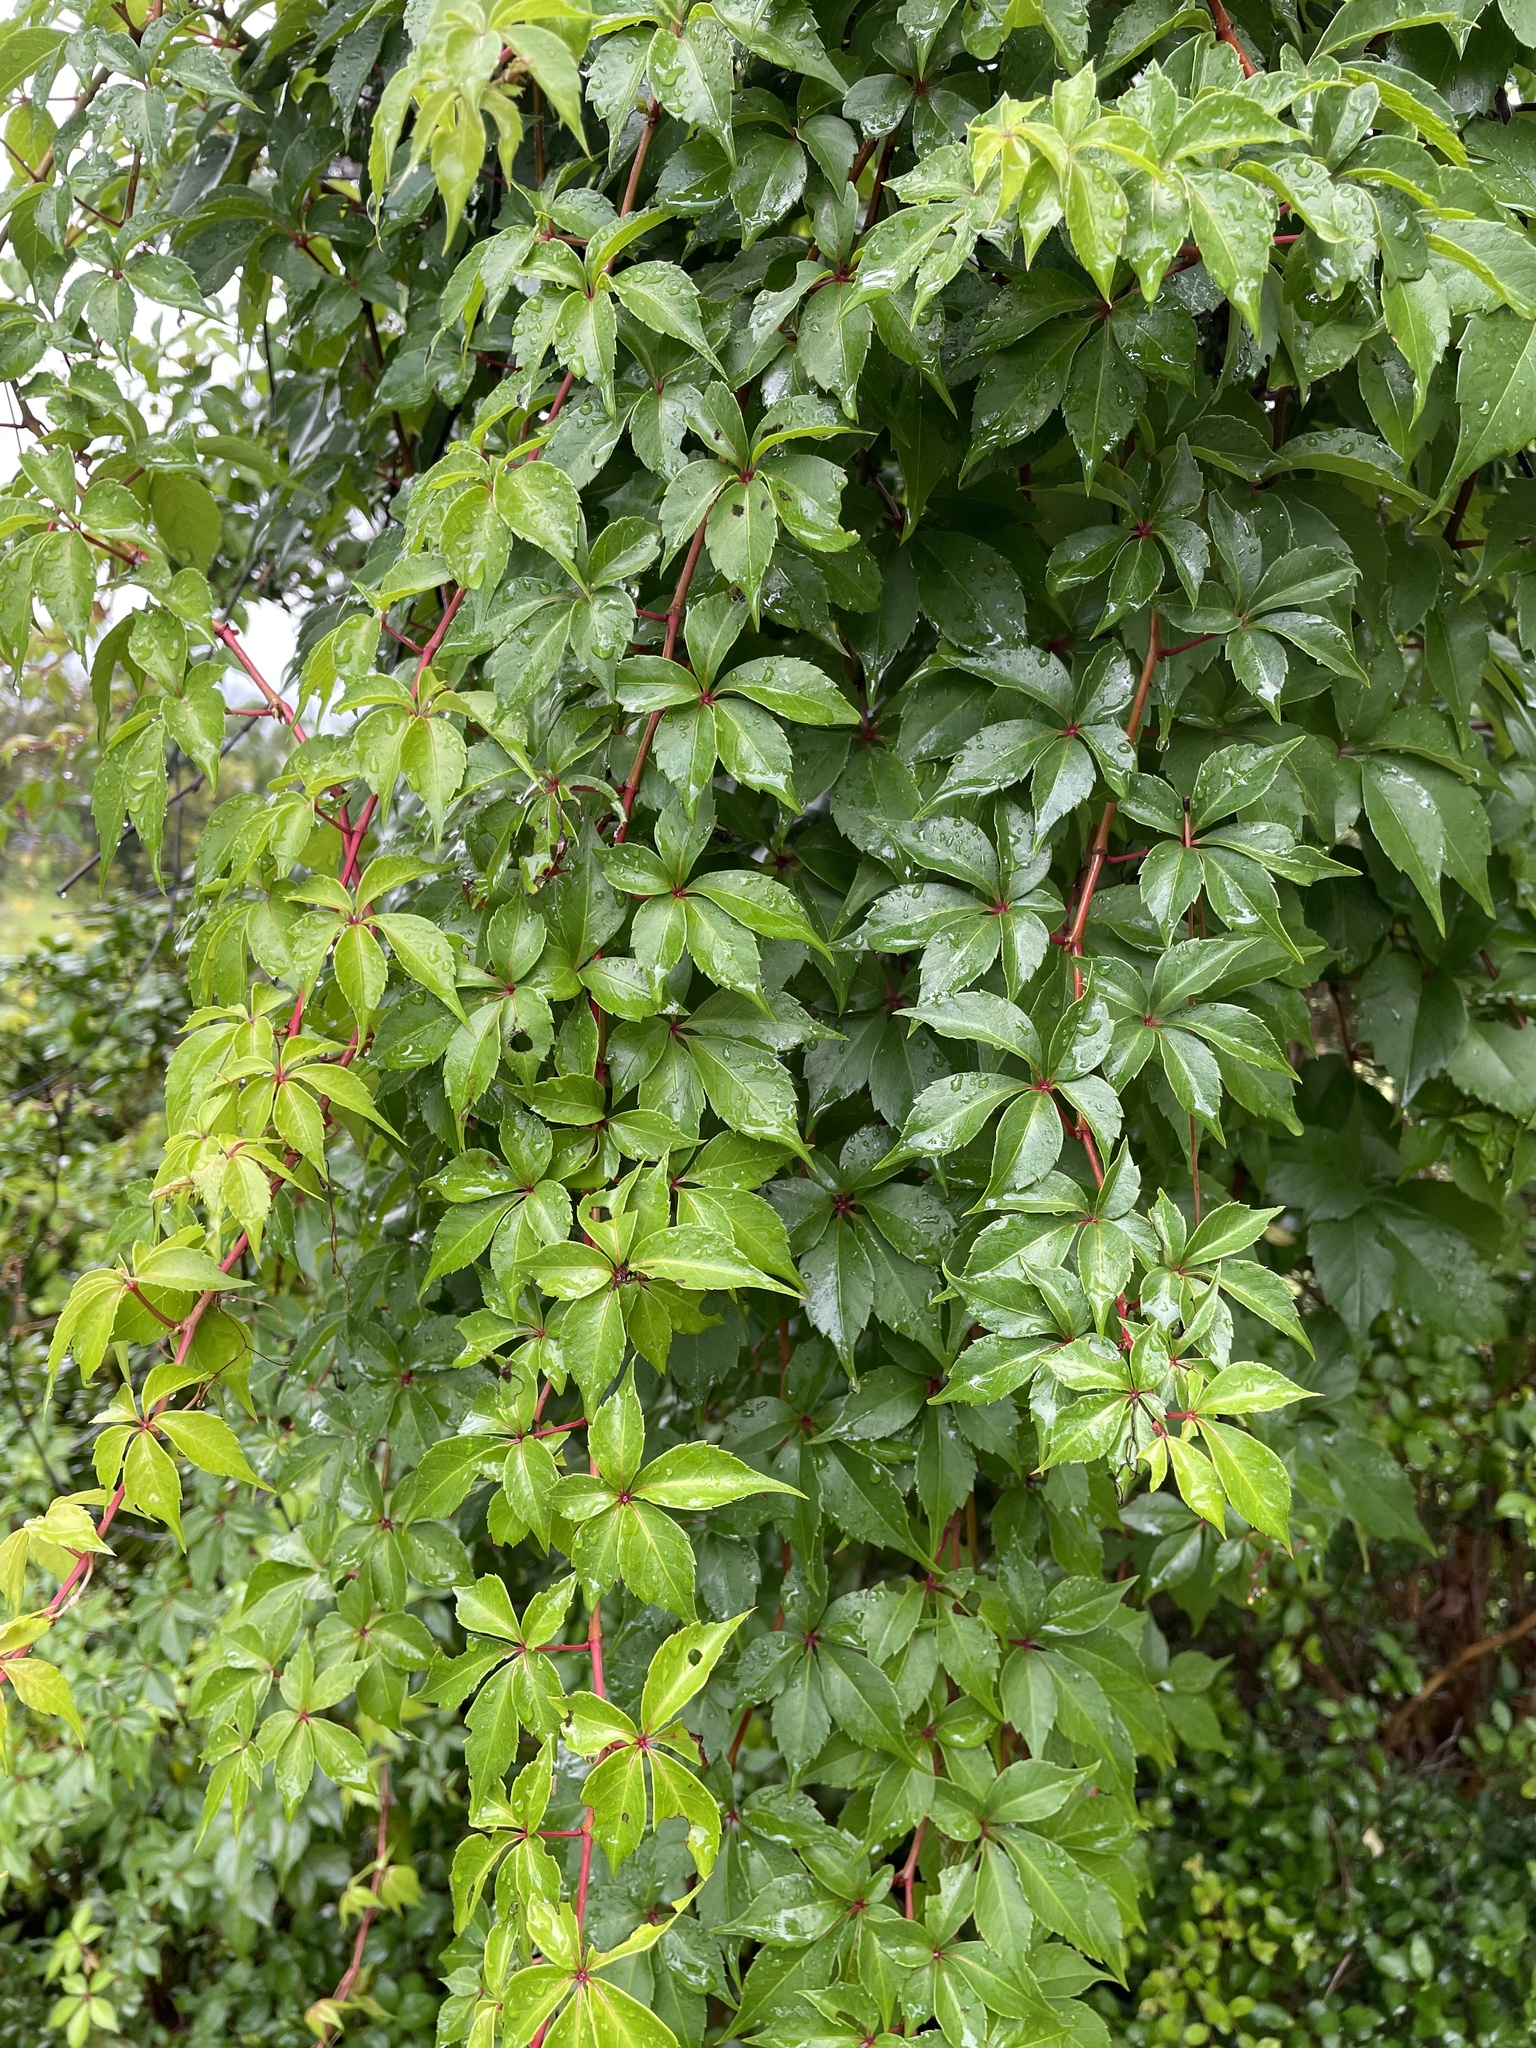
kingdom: Plantae
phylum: Tracheophyta
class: Magnoliopsida
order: Vitales
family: Vitaceae
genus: Parthenocissus
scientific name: Parthenocissus quinquefolia
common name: Virginia-creeper
